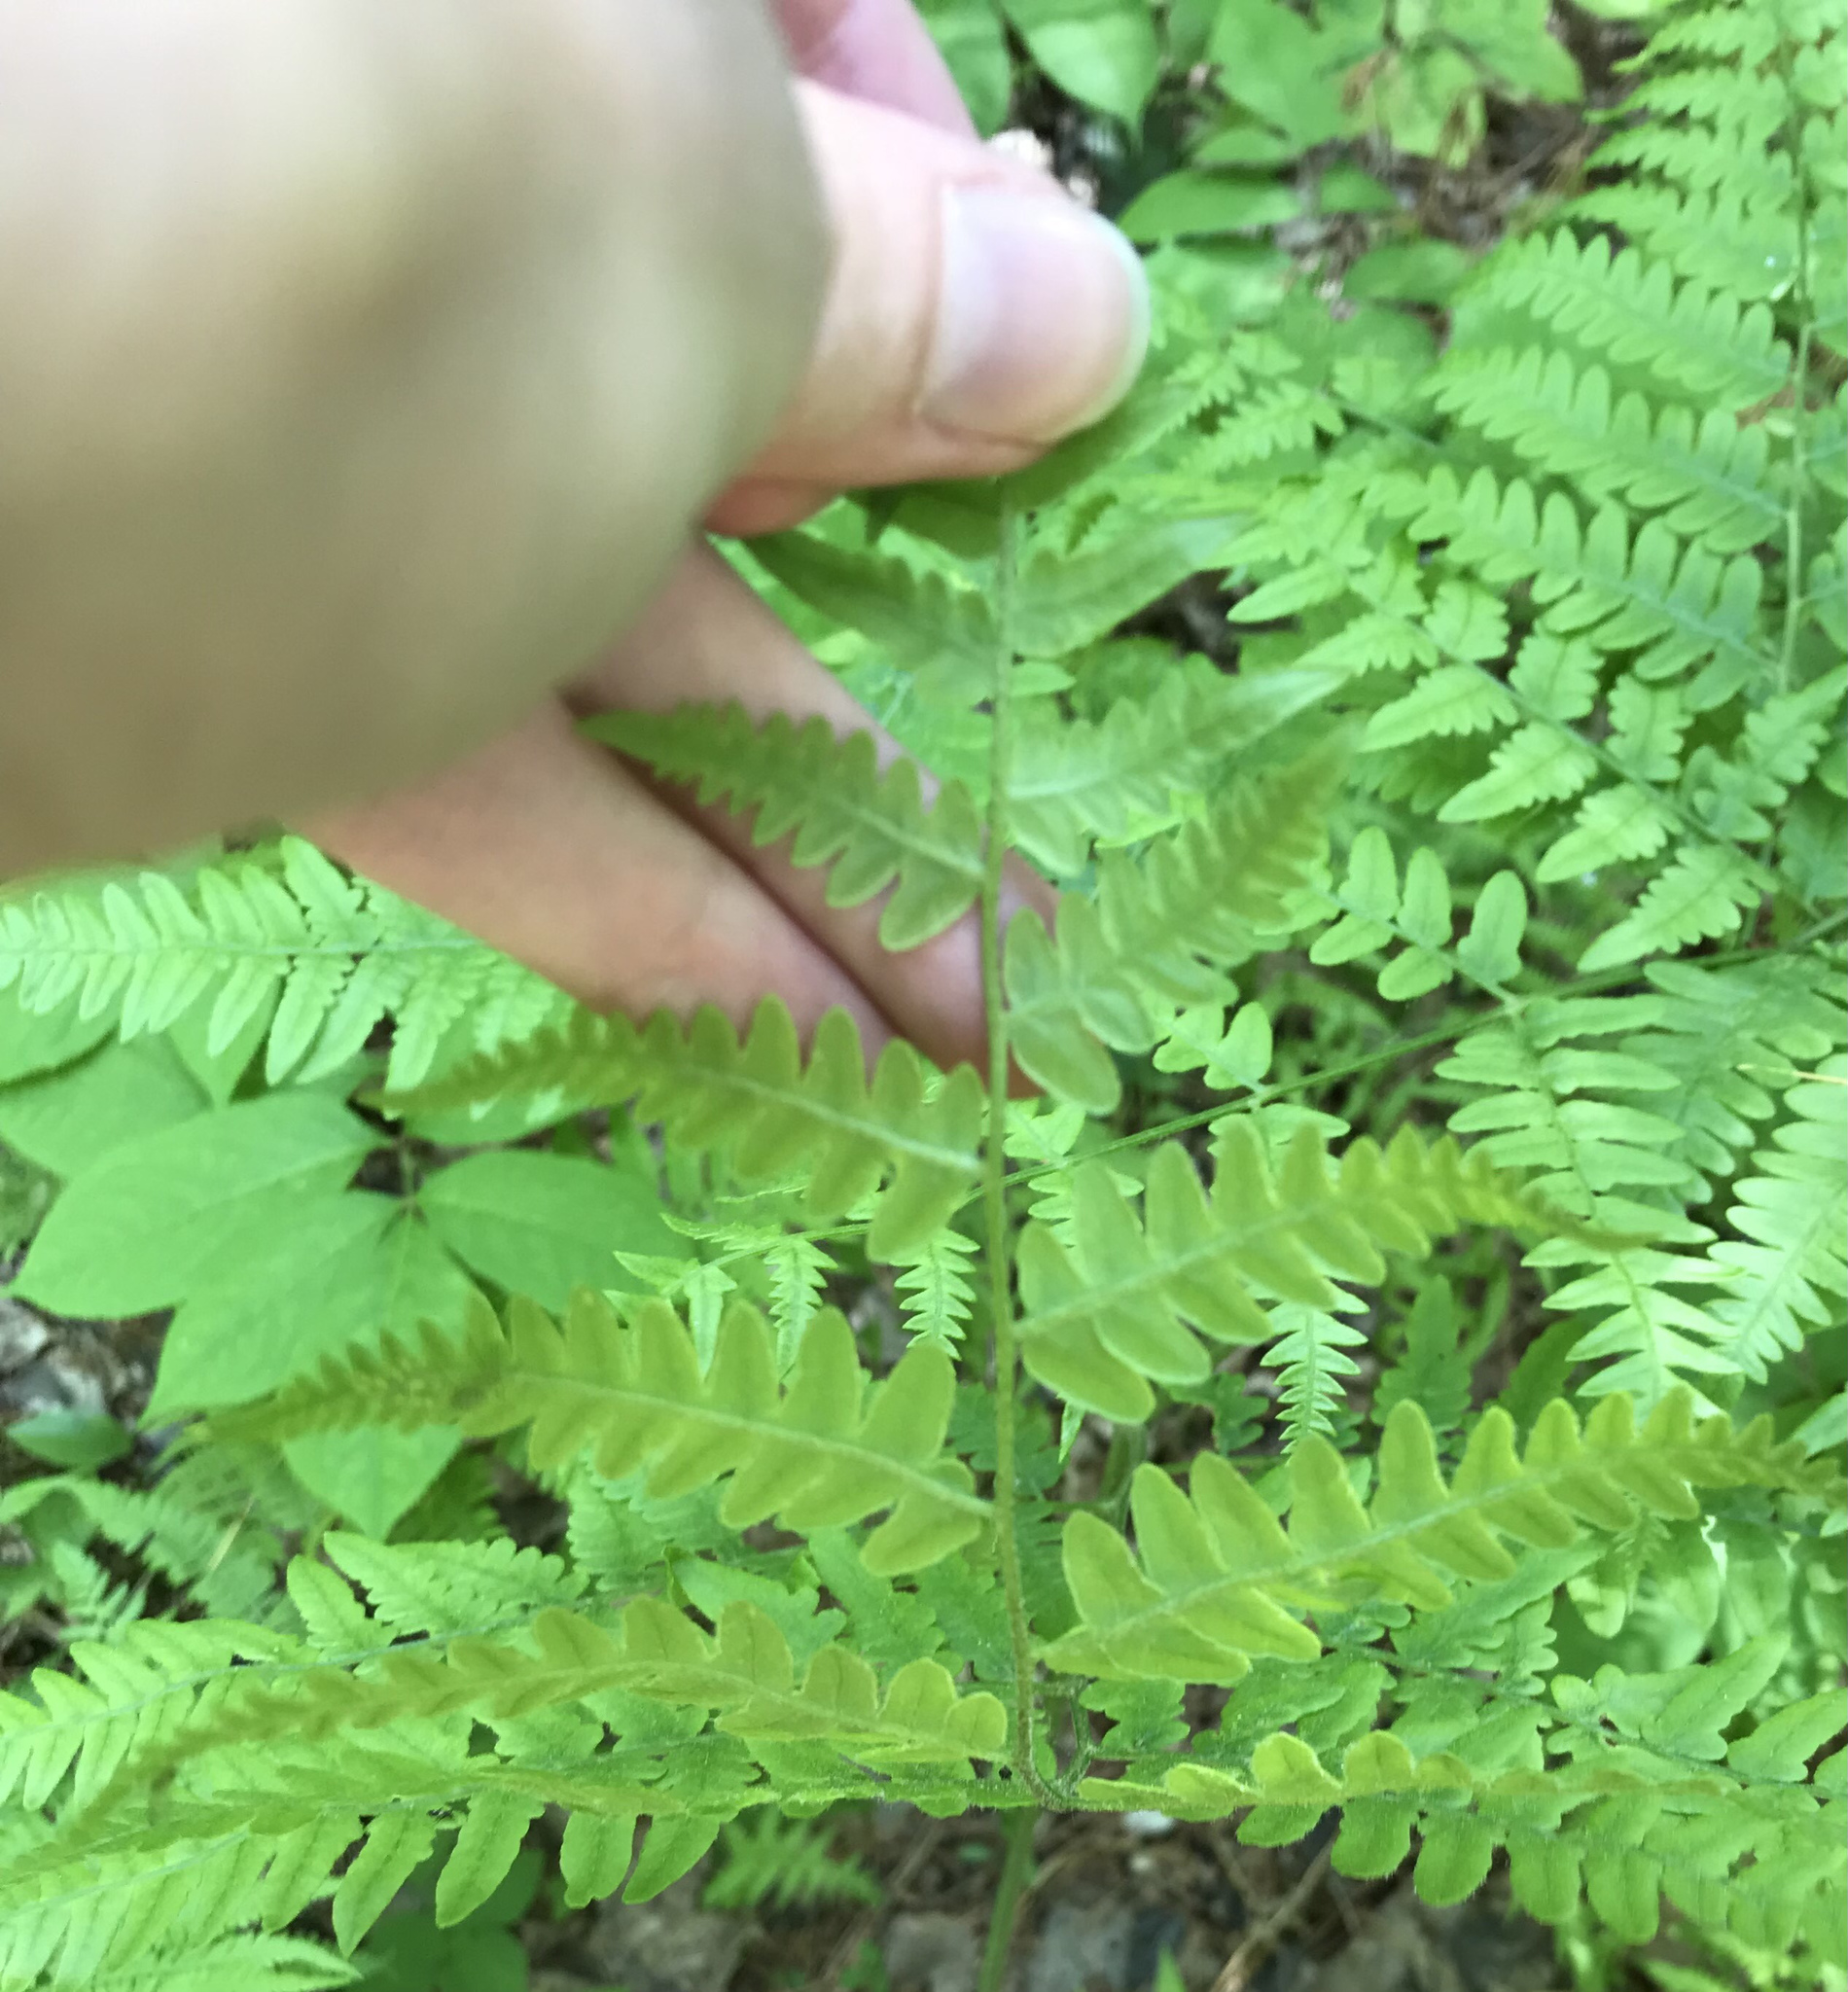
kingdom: Plantae
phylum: Tracheophyta
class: Polypodiopsida
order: Polypodiales
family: Dennstaedtiaceae
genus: Pteridium
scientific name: Pteridium aquilinum
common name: Bracken
